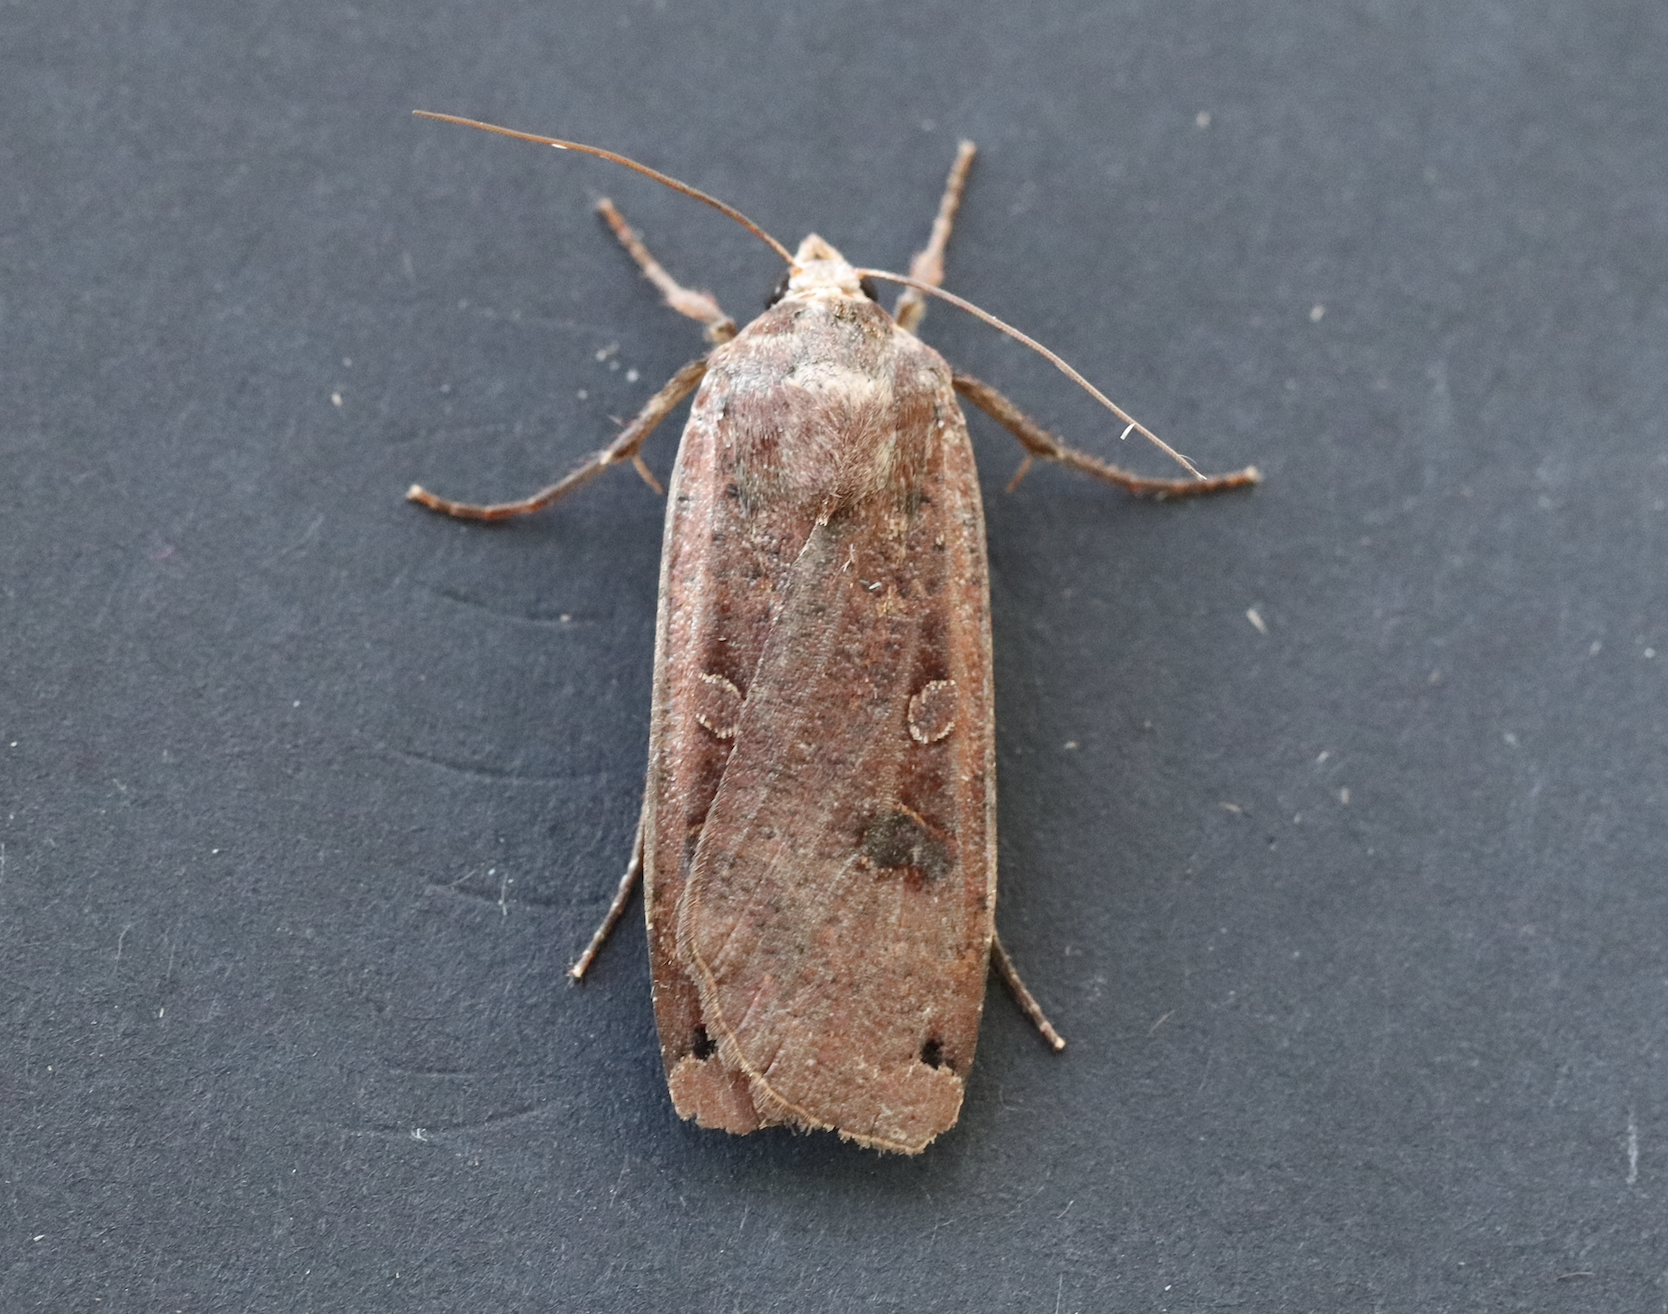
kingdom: Animalia
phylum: Arthropoda
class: Insecta
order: Lepidoptera
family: Noctuidae
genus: Noctua
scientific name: Noctua pronuba
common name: Large yellow underwing
